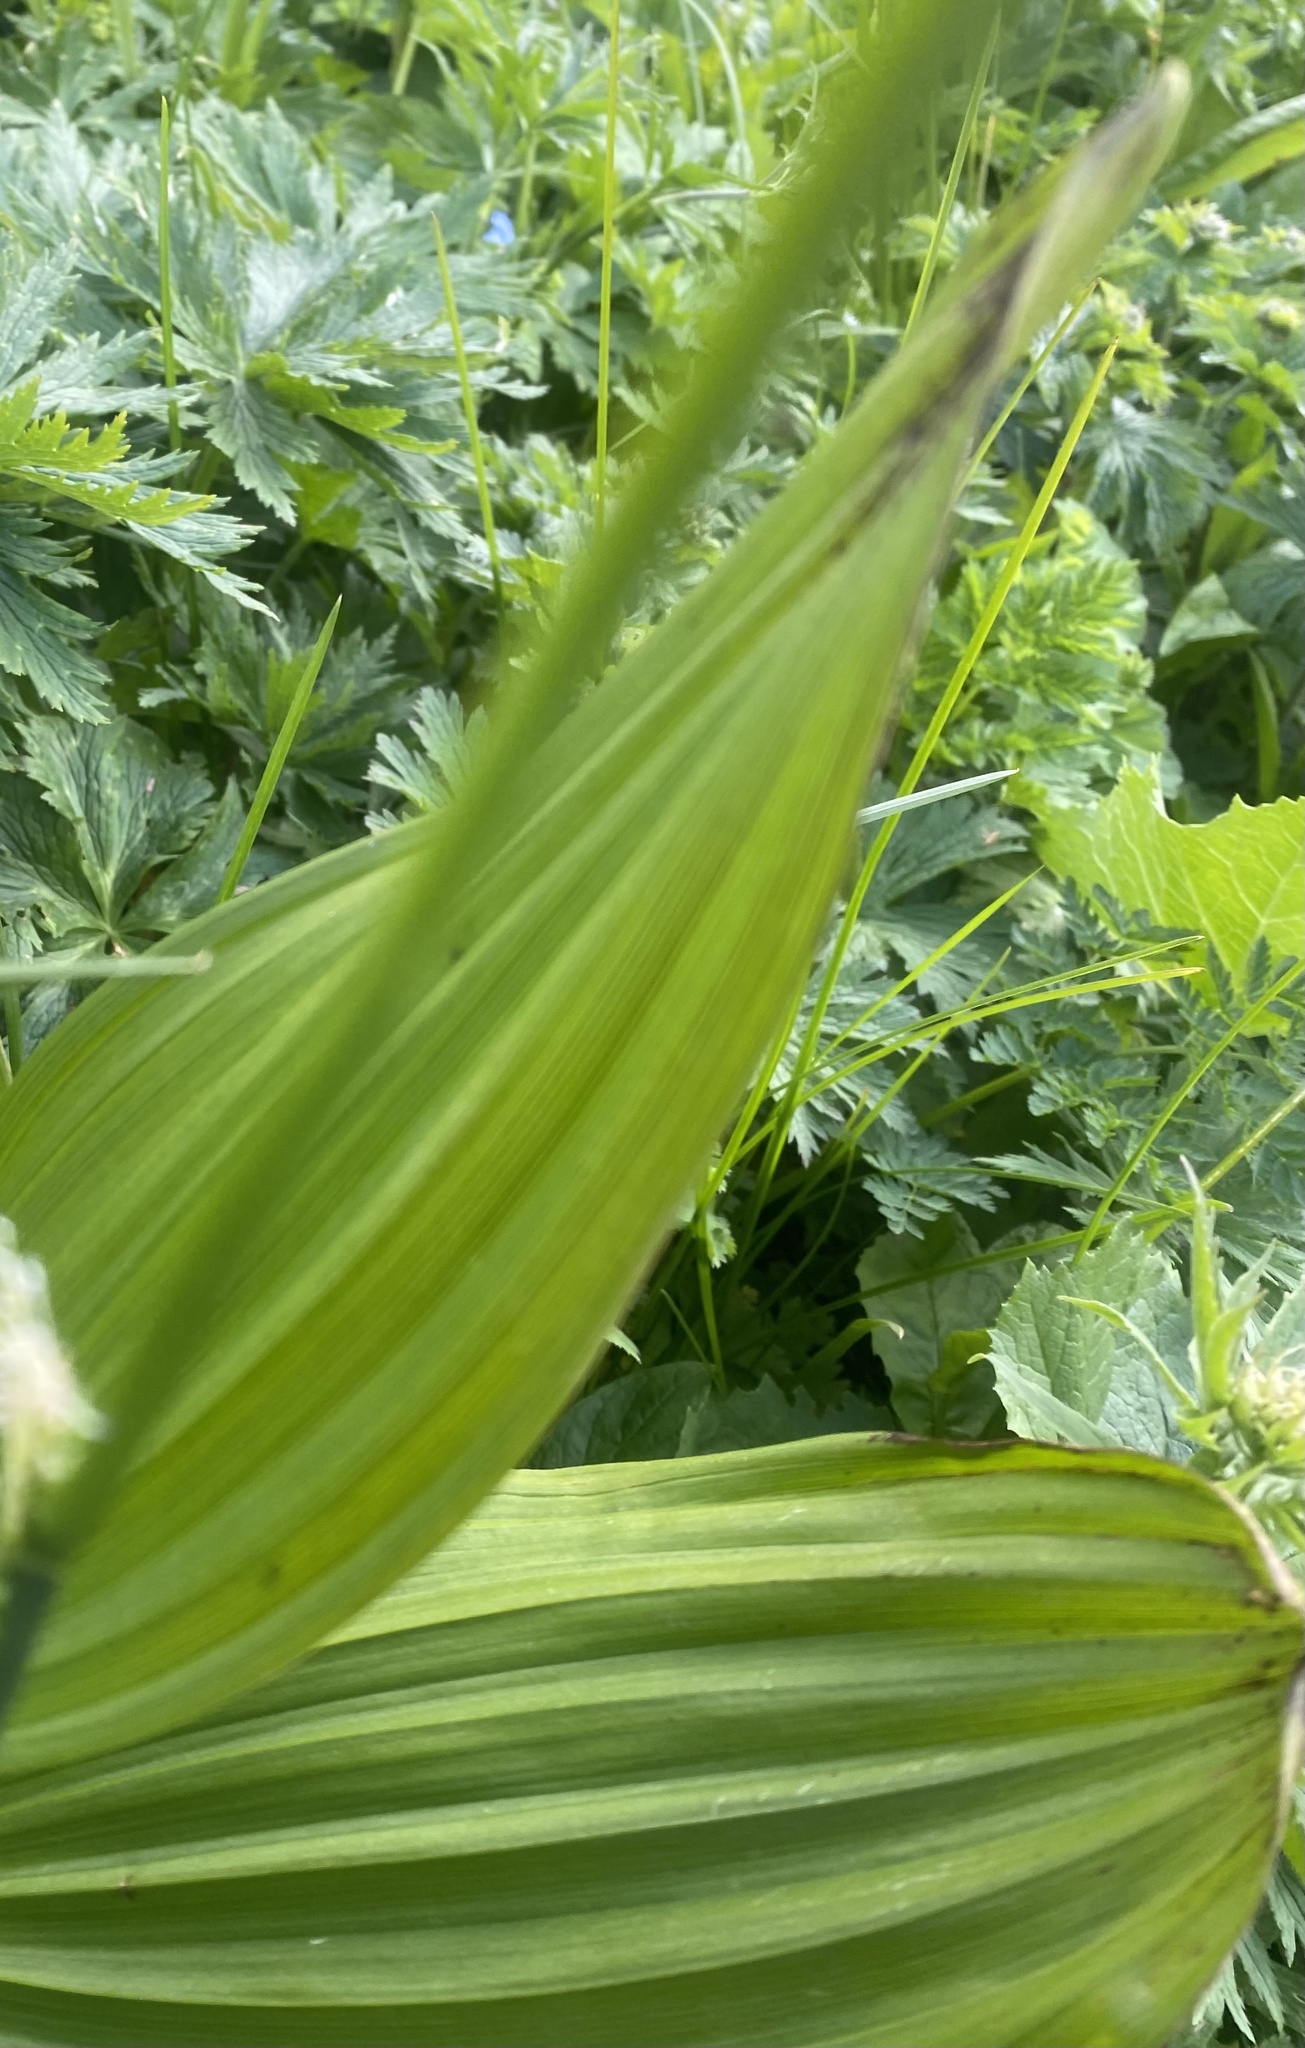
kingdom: Plantae
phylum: Tracheophyta
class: Liliopsida
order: Liliales
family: Melanthiaceae
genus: Veratrum
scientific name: Veratrum lobelianum
